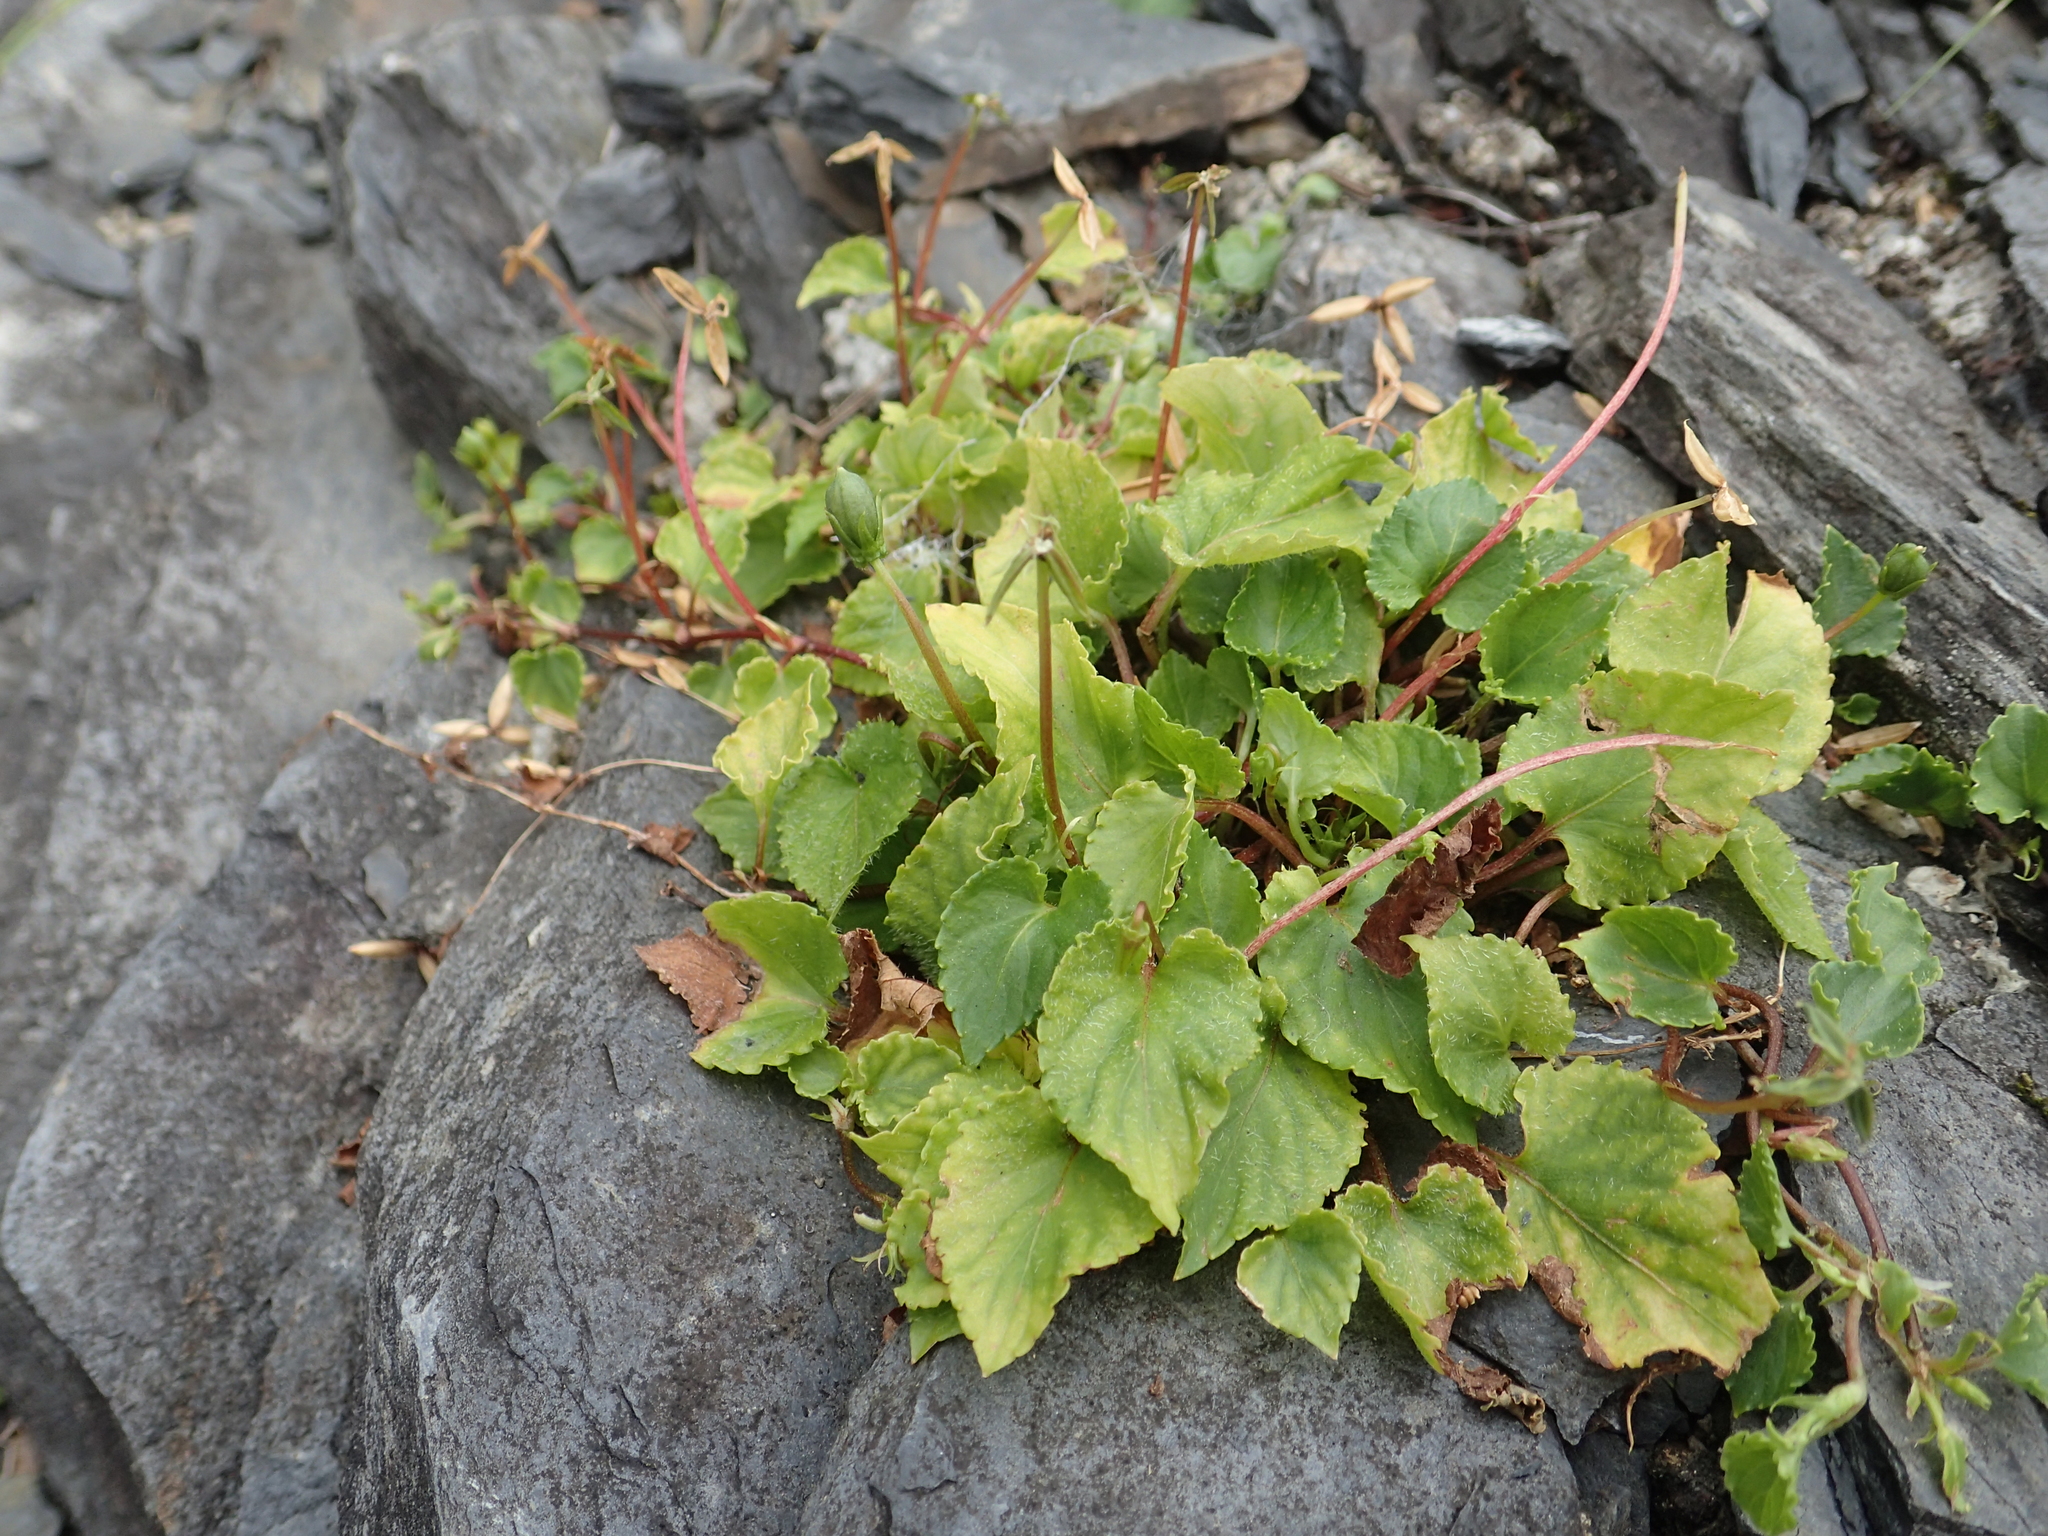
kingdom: Plantae
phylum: Tracheophyta
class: Magnoliopsida
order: Malpighiales
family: Violaceae
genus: Viola
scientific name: Viola shinchikuensis
